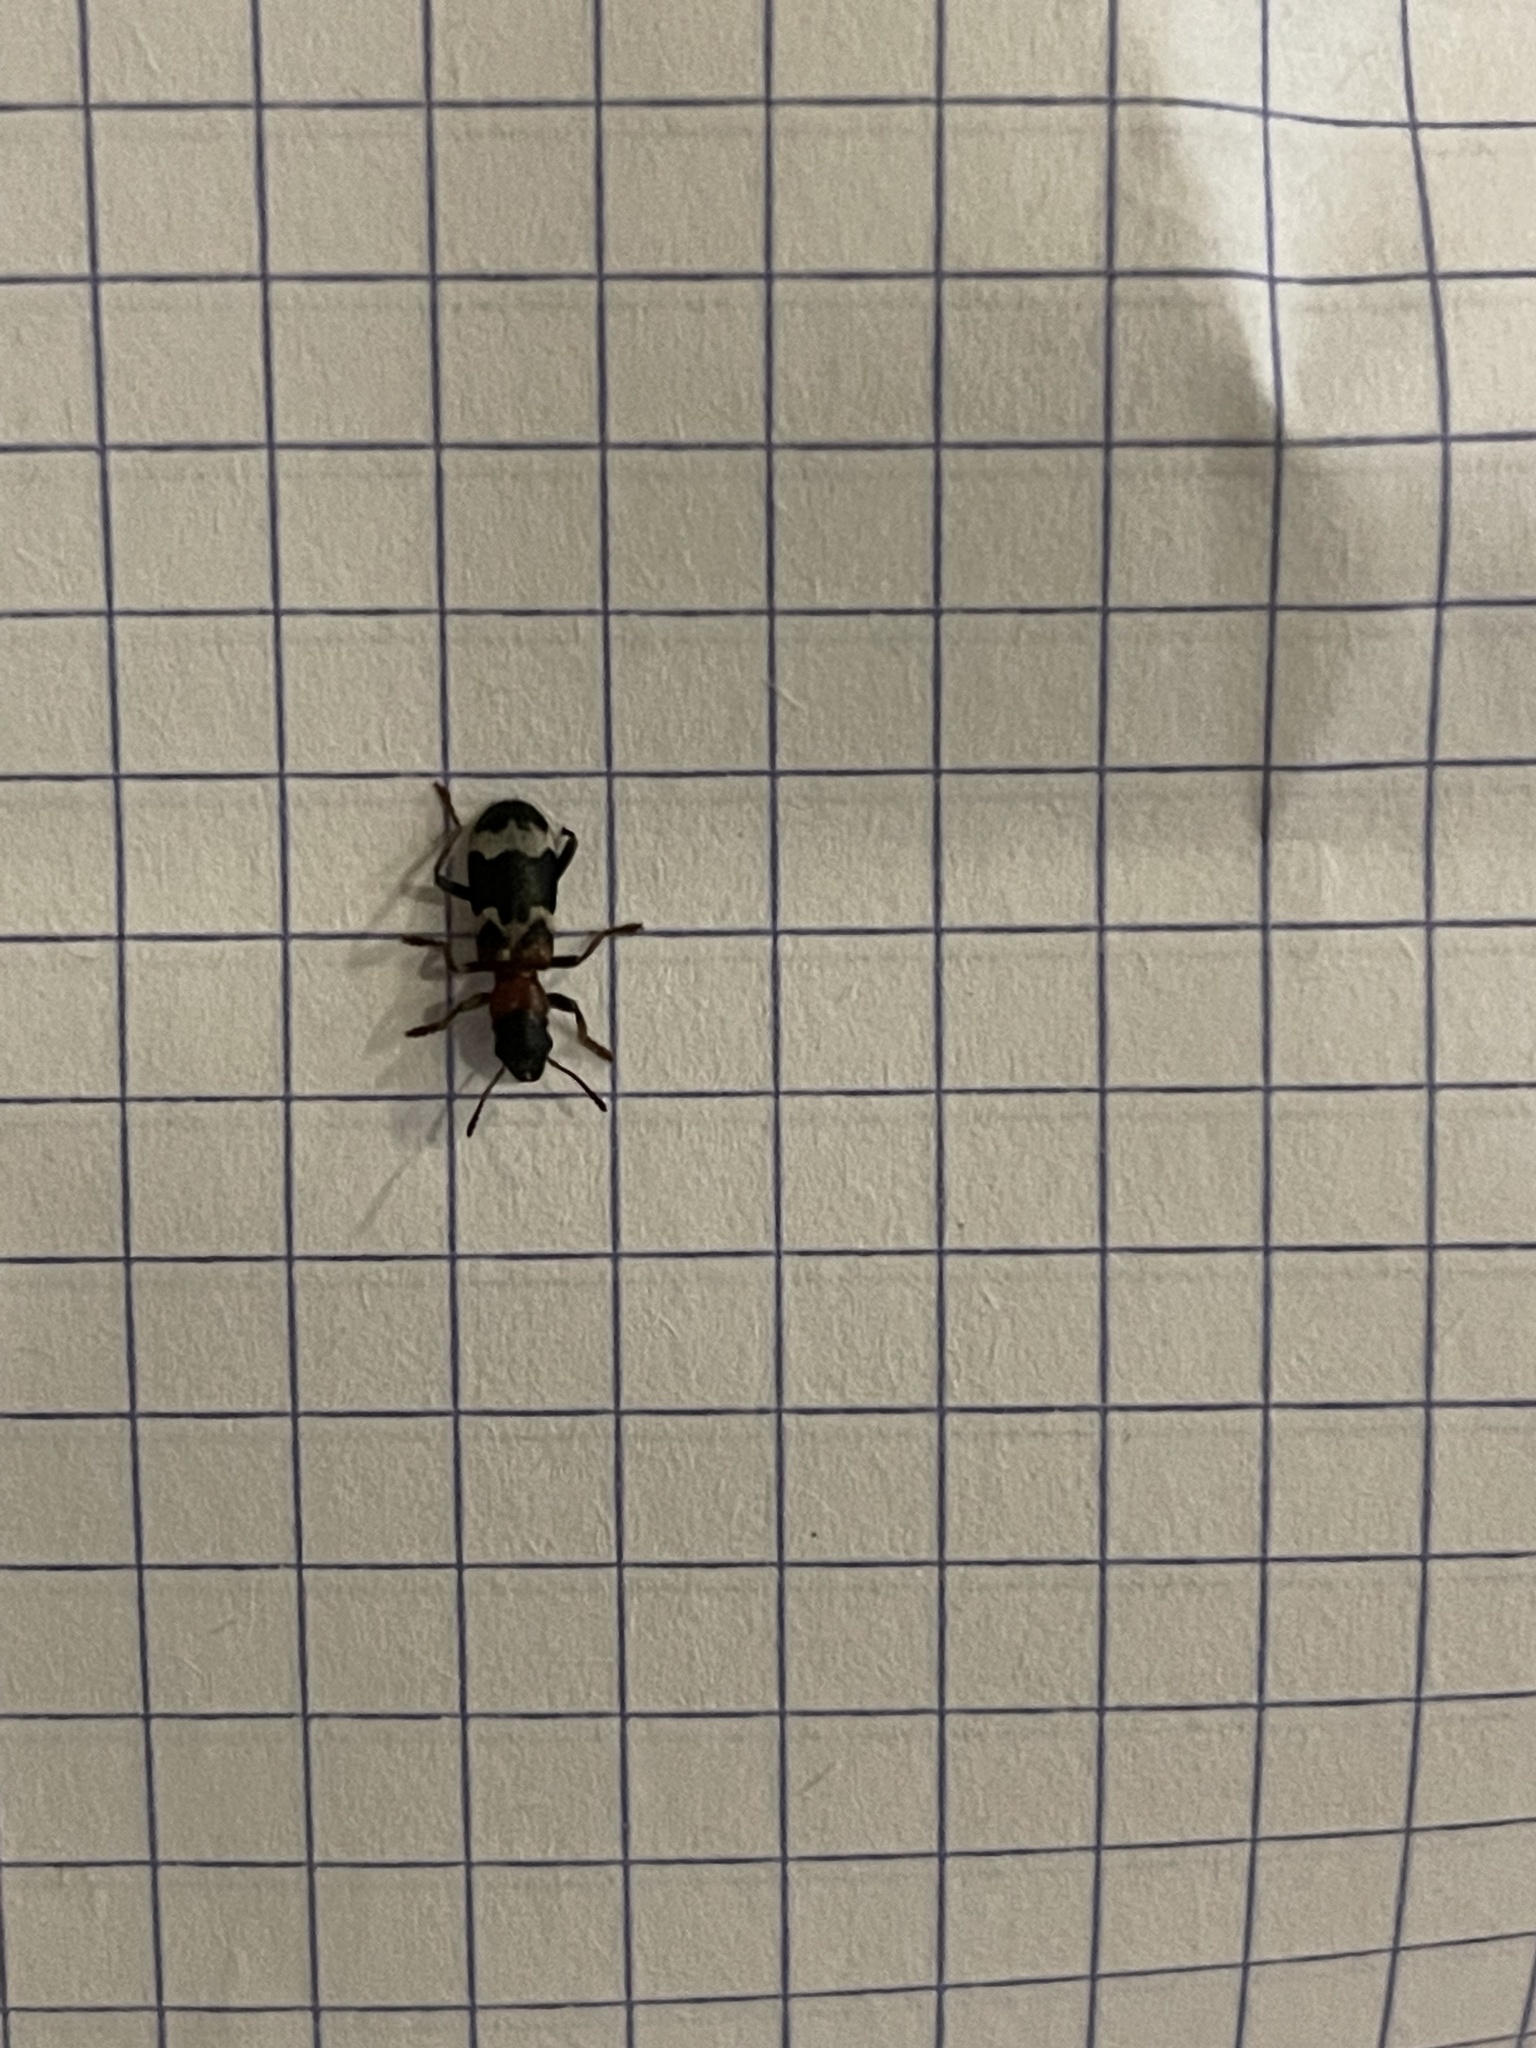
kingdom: Animalia
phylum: Arthropoda
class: Insecta
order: Coleoptera
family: Cleridae
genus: Thanasimus
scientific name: Thanasimus formicarius
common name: Ant beetle
